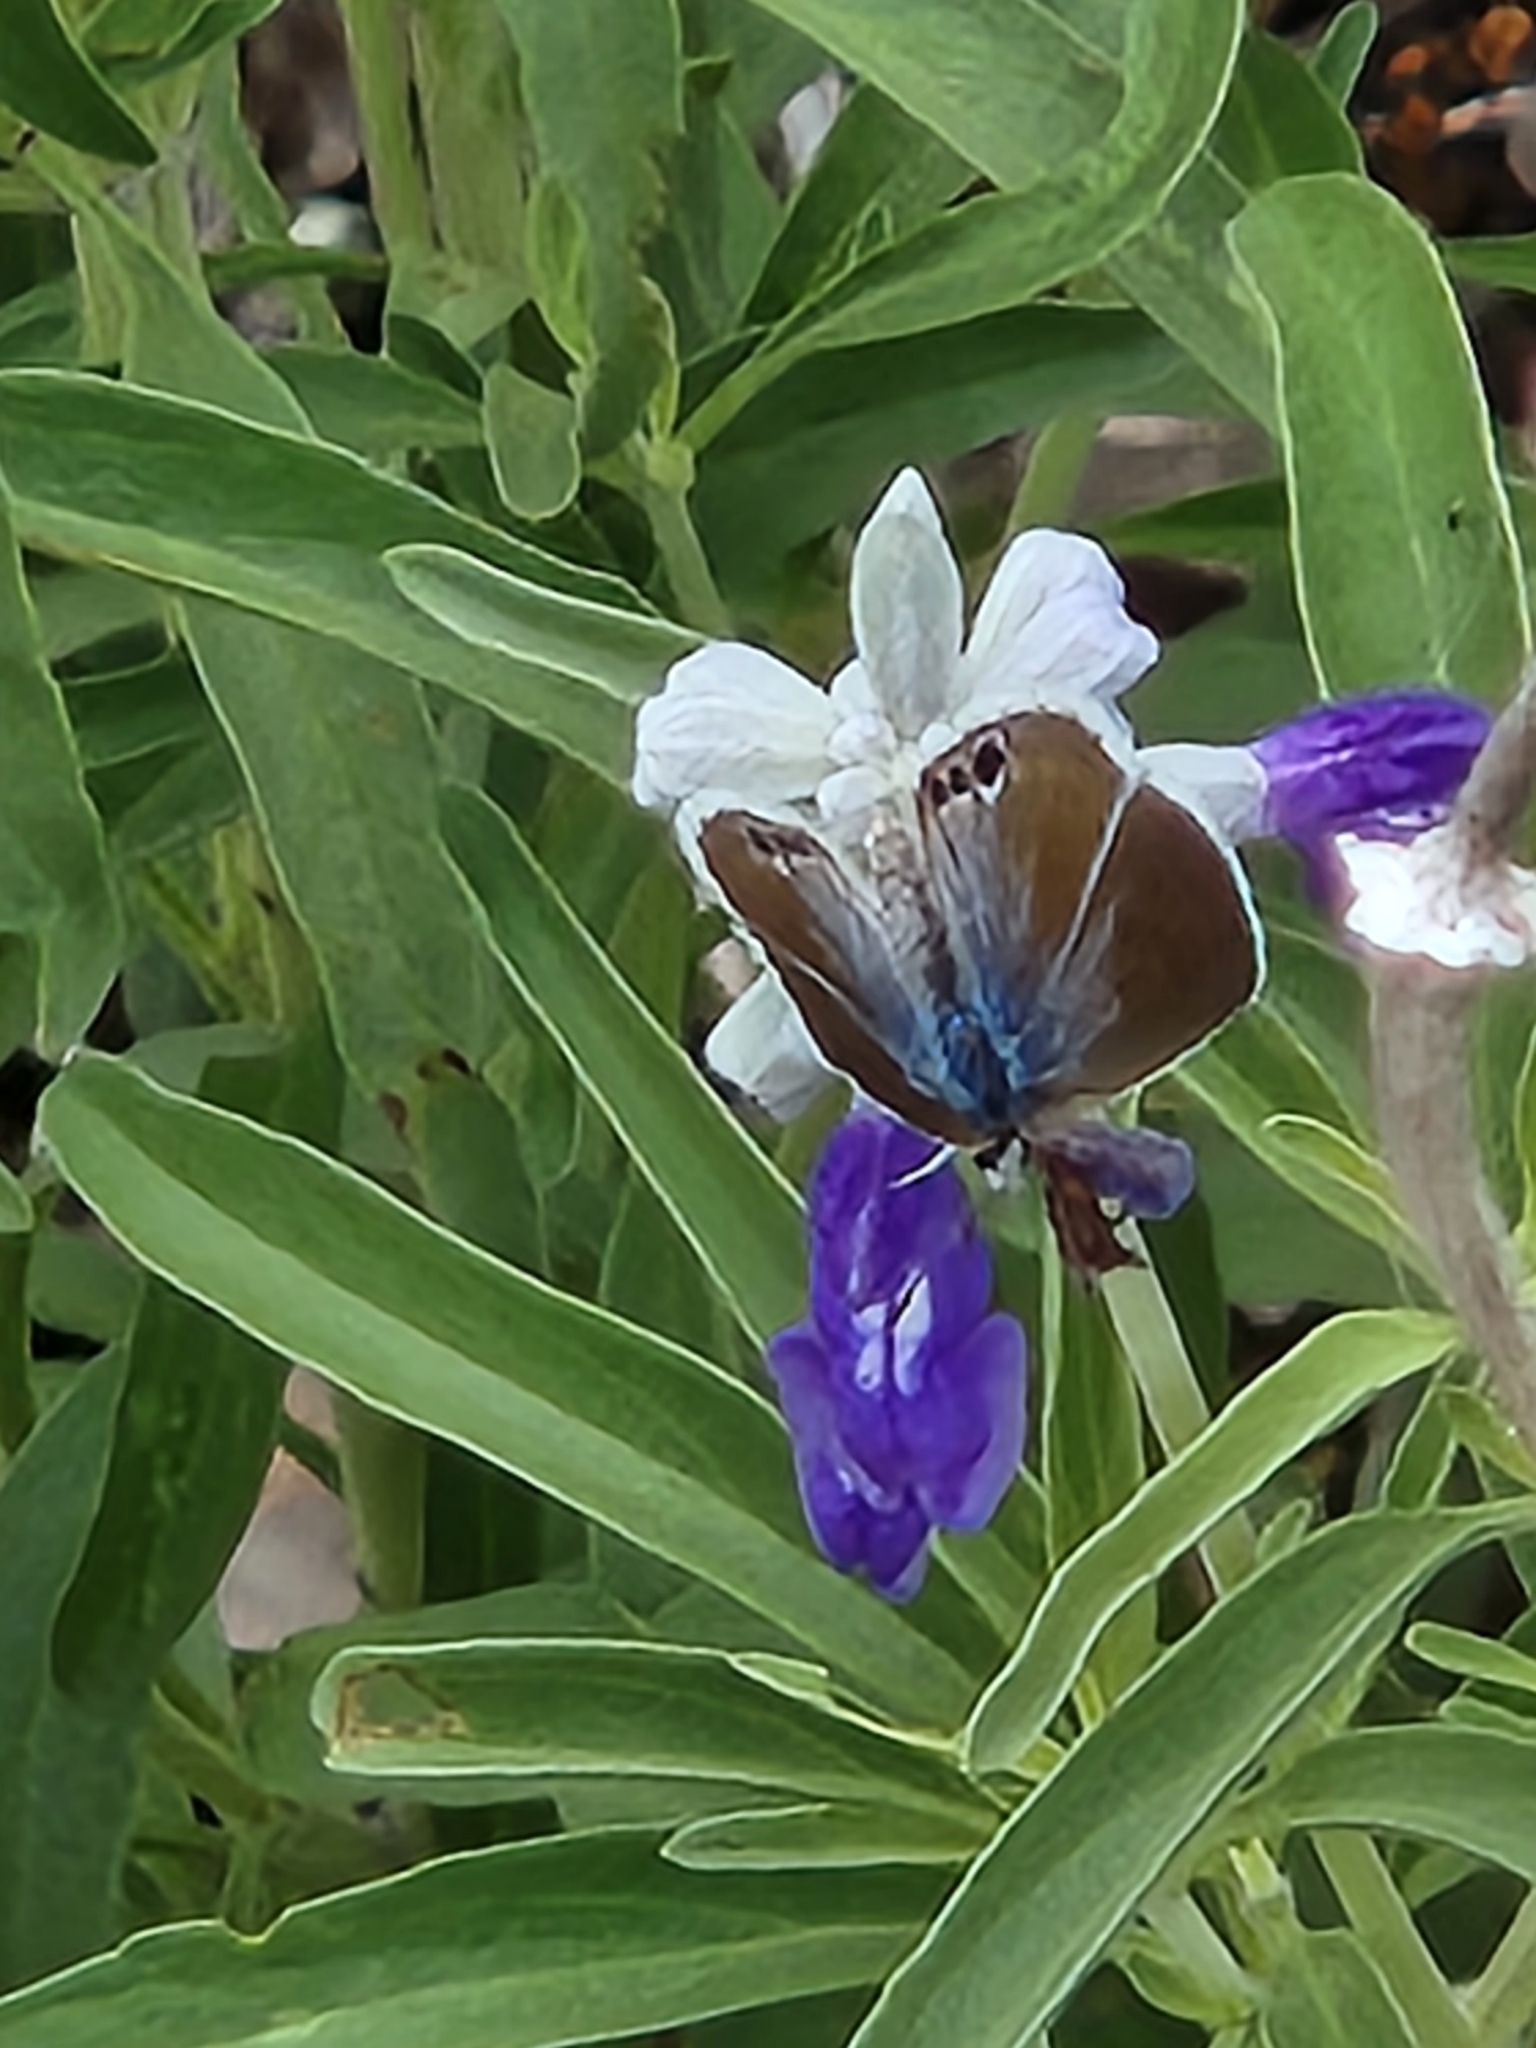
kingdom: Animalia
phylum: Arthropoda
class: Insecta
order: Lepidoptera
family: Lycaenidae
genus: Echinargus
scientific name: Echinargus isola
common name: Reakirt's blue
